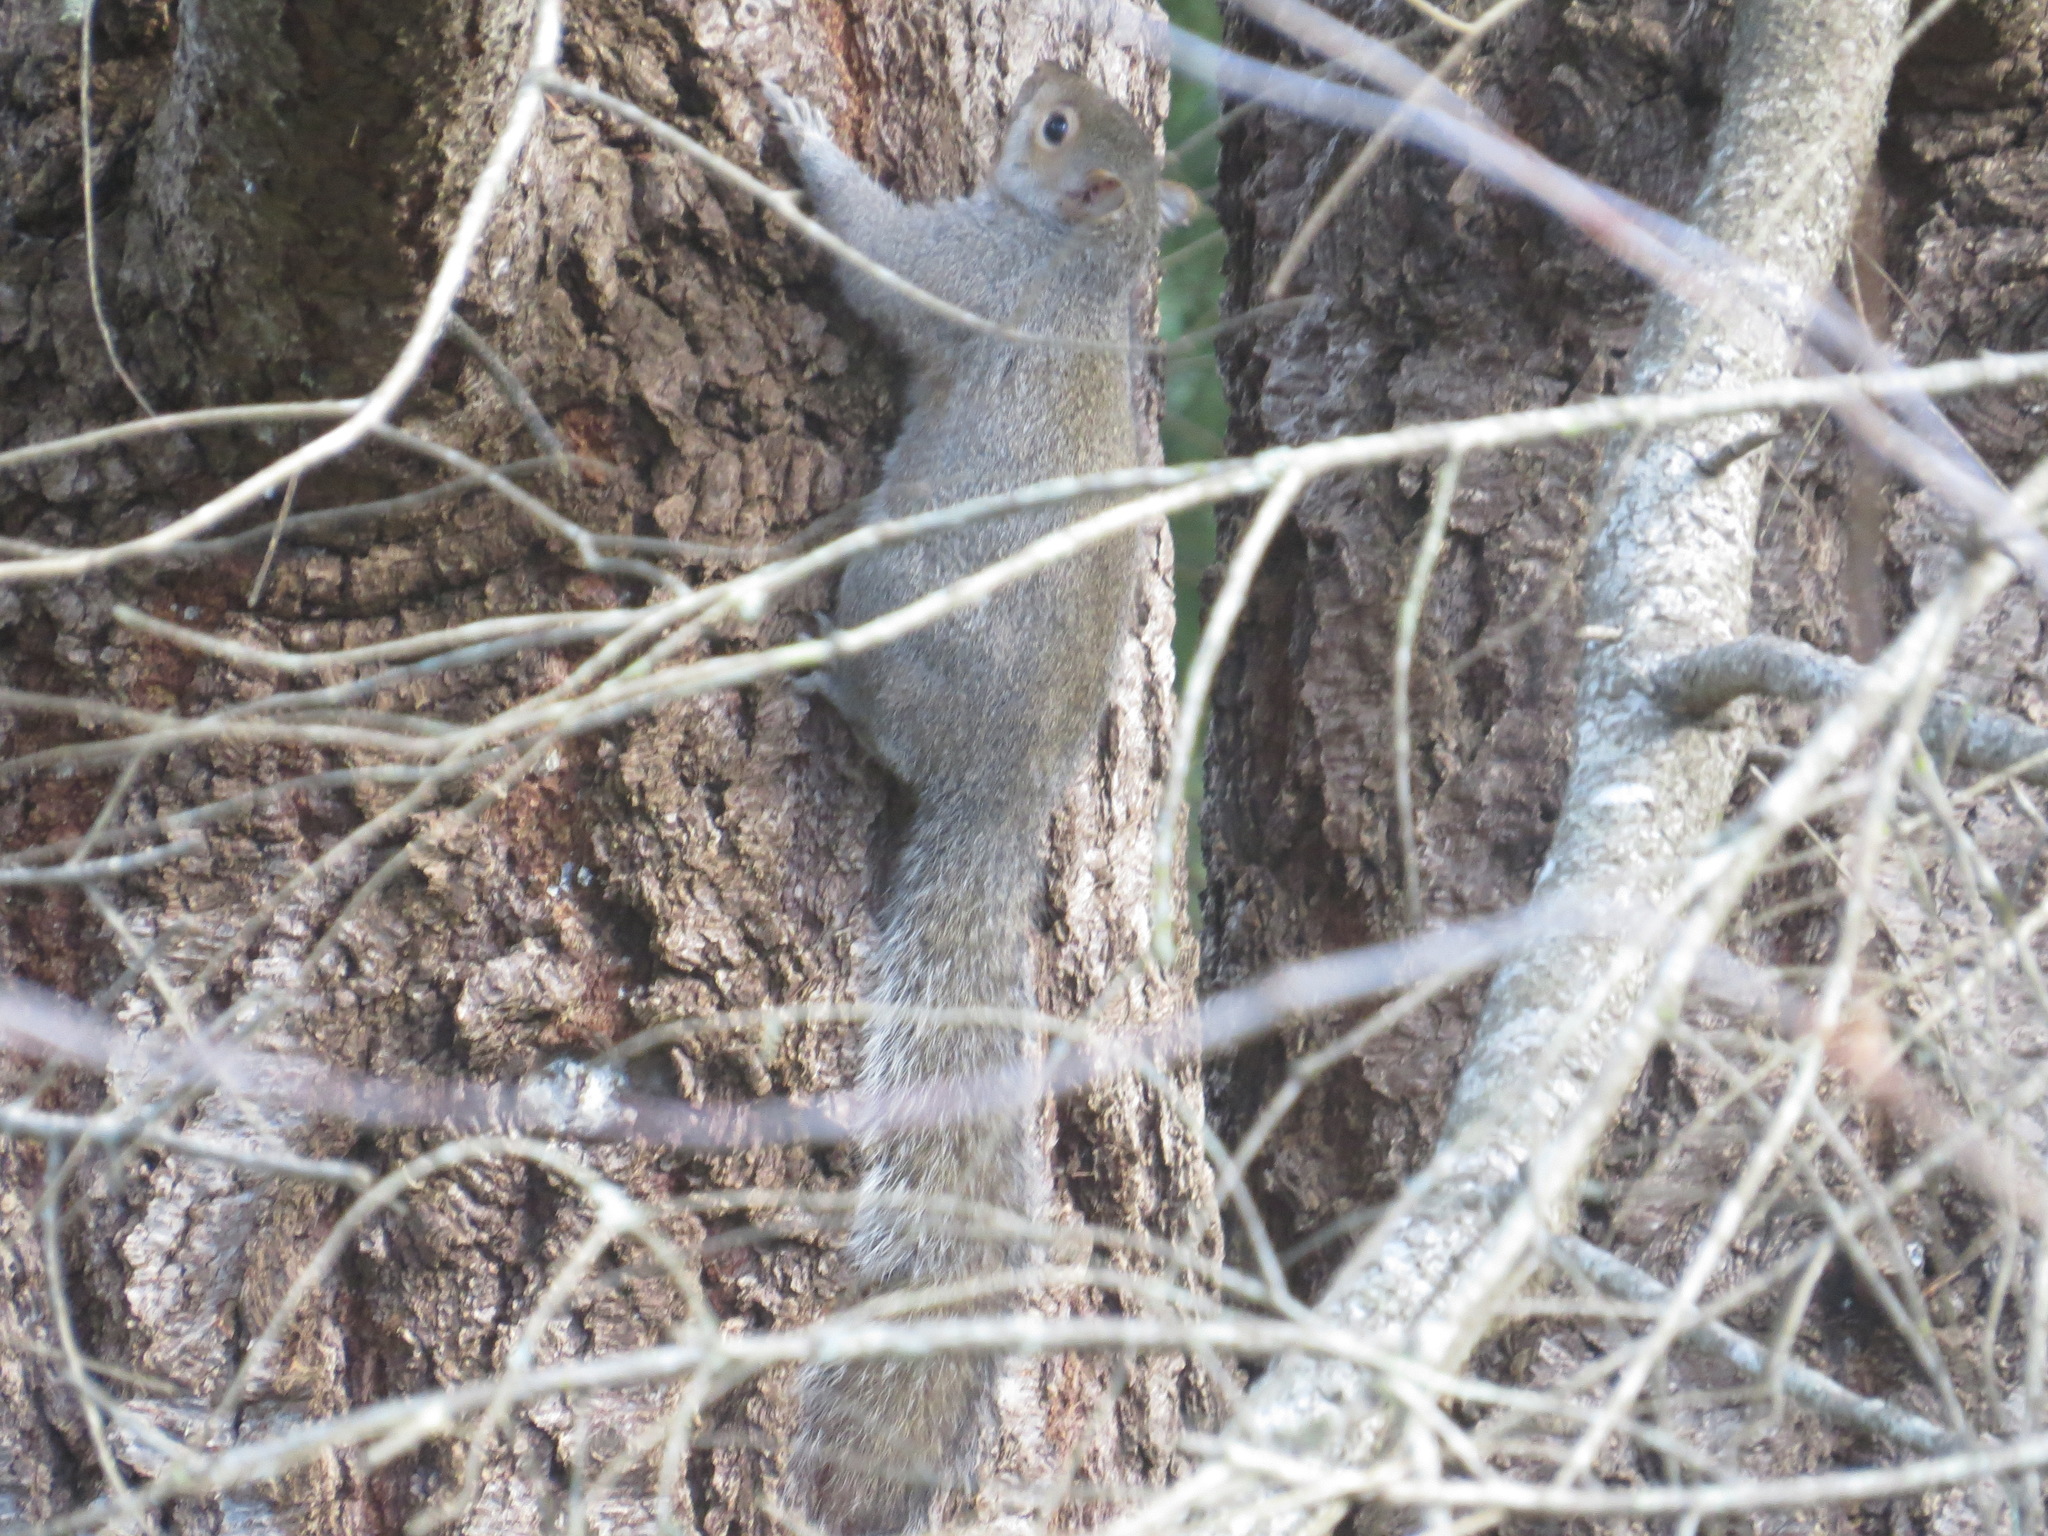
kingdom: Animalia
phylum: Chordata
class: Mammalia
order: Rodentia
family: Sciuridae
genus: Sciurus
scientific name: Sciurus carolinensis
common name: Eastern gray squirrel
